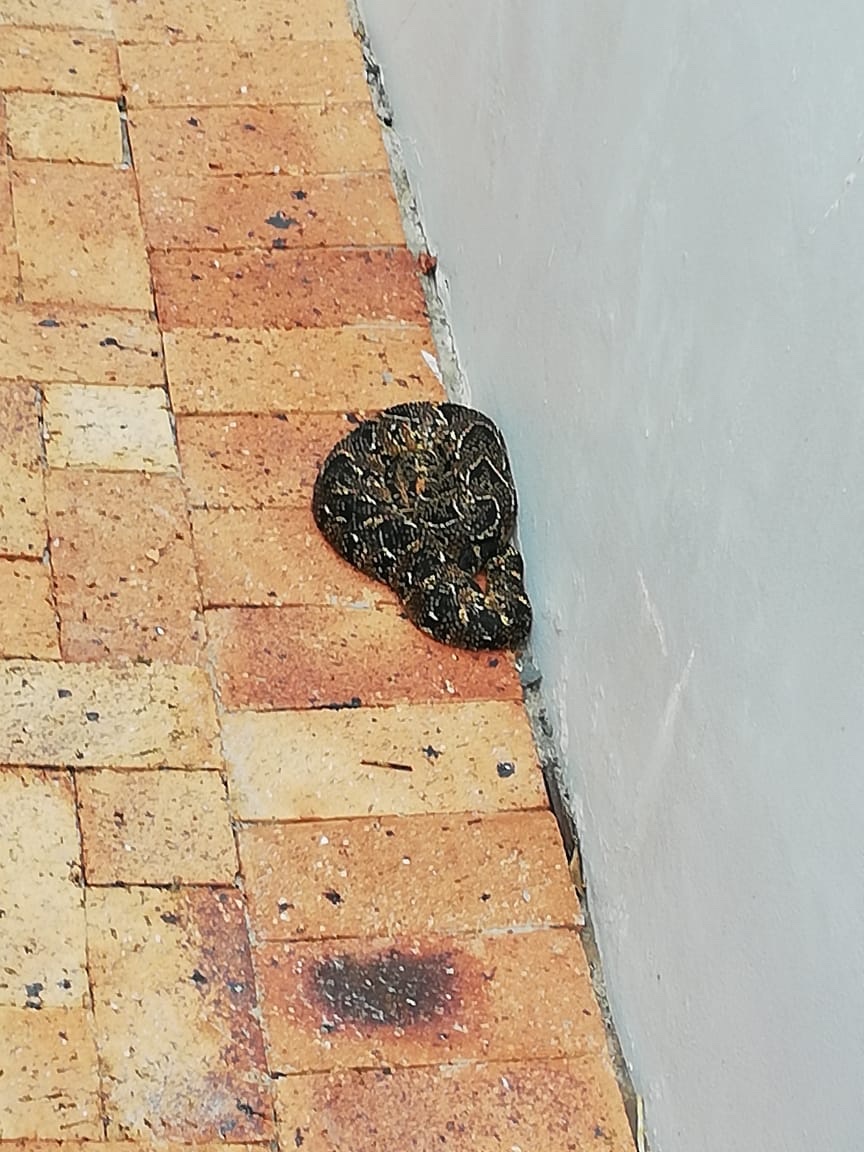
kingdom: Animalia
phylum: Chordata
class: Squamata
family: Viperidae
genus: Bitis
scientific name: Bitis arietans
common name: Puff adder
